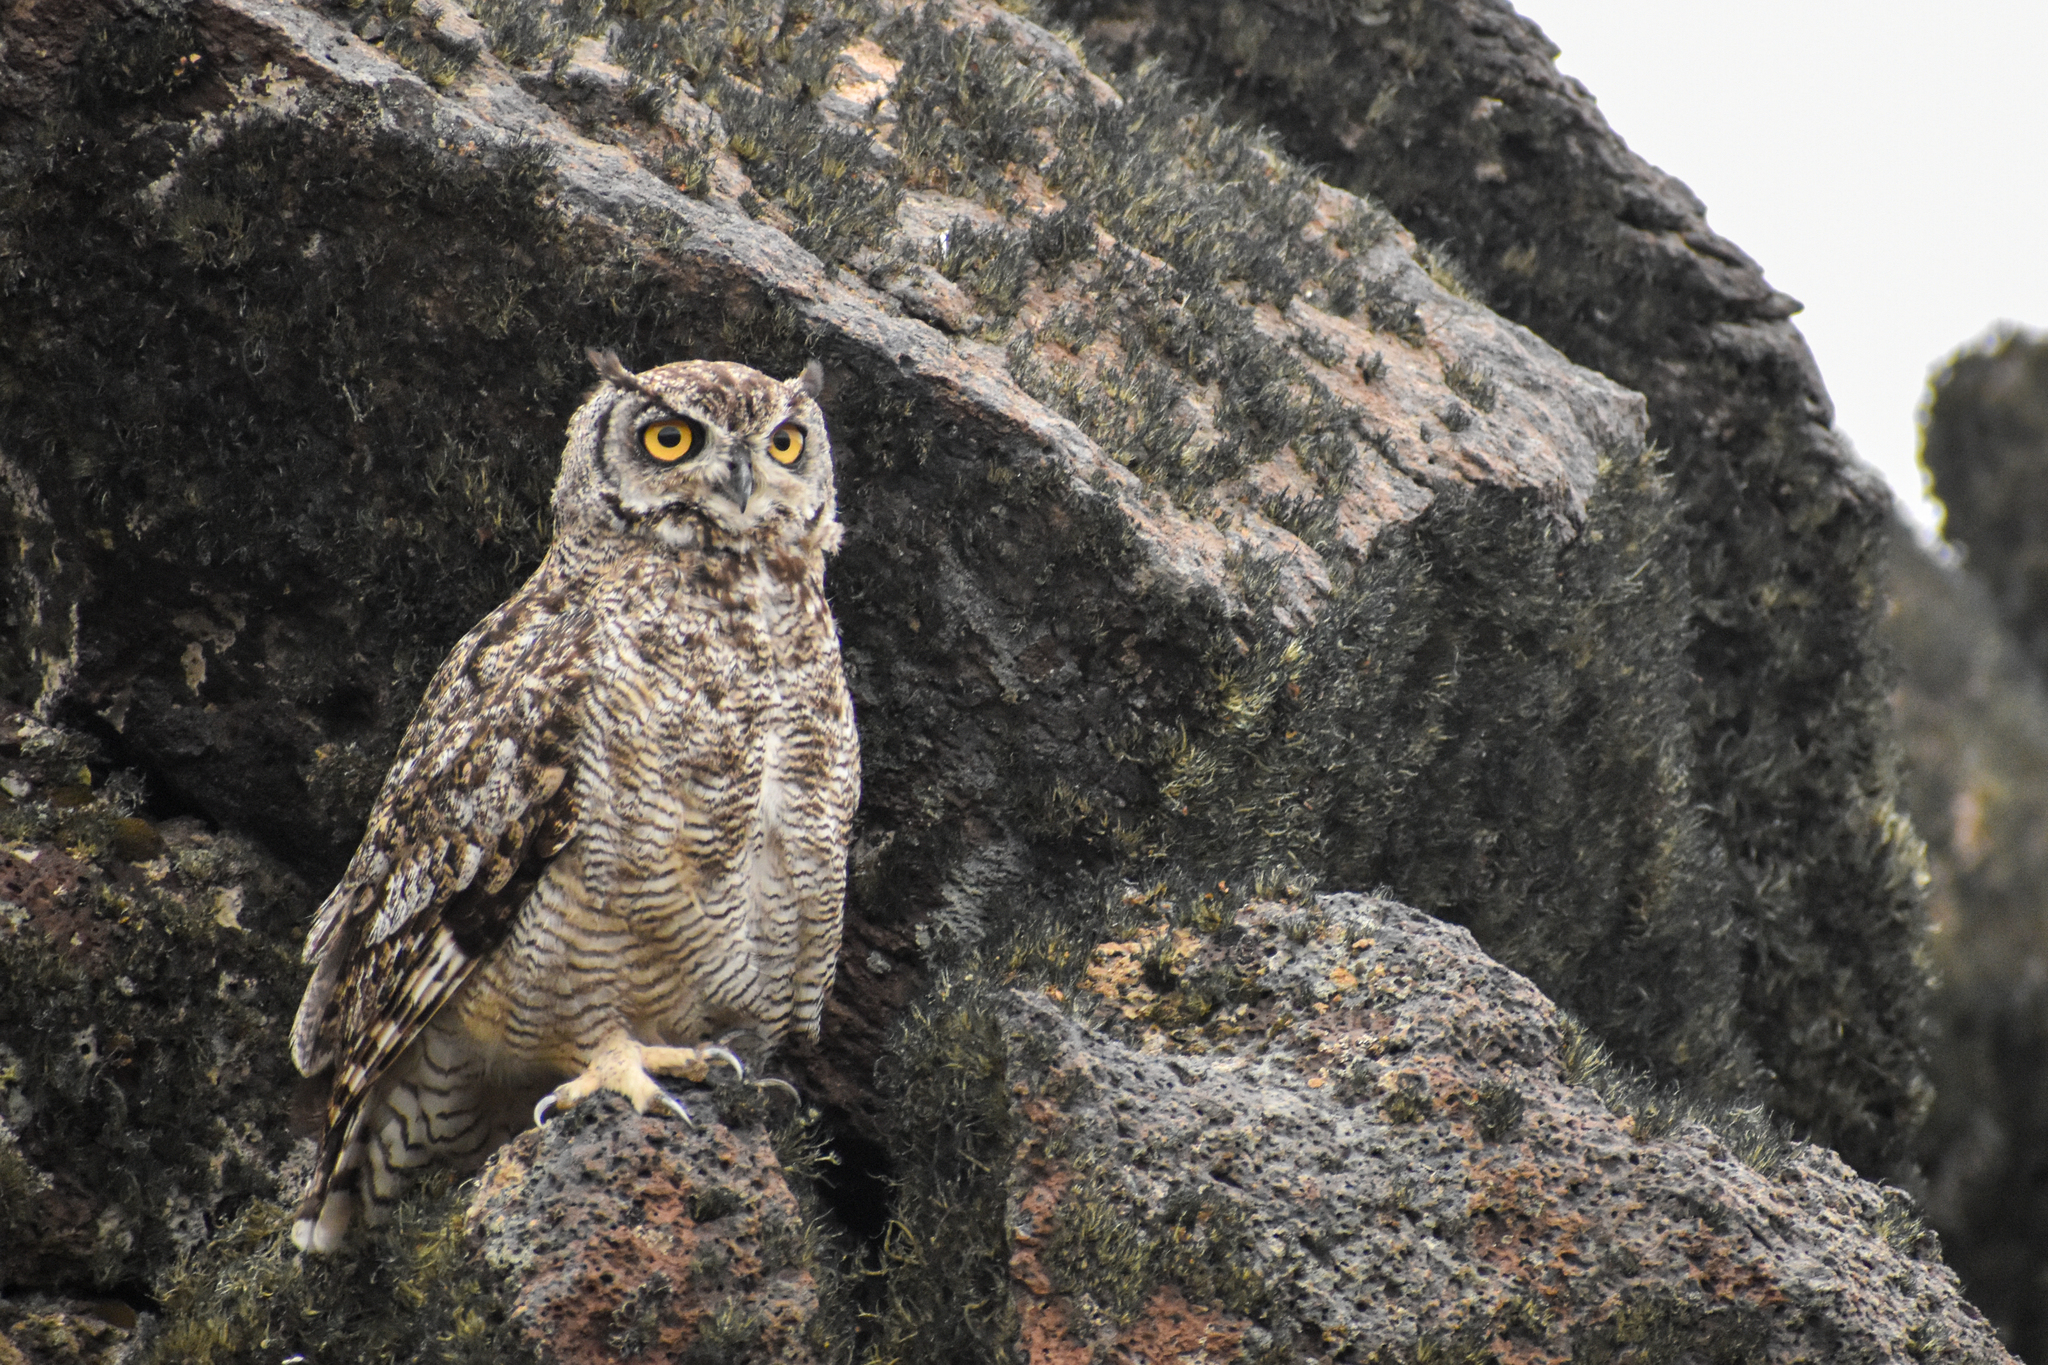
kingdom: Animalia
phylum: Chordata
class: Aves
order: Strigiformes
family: Strigidae
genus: Bubo
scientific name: Bubo magellanicus
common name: Lesser horned owl
